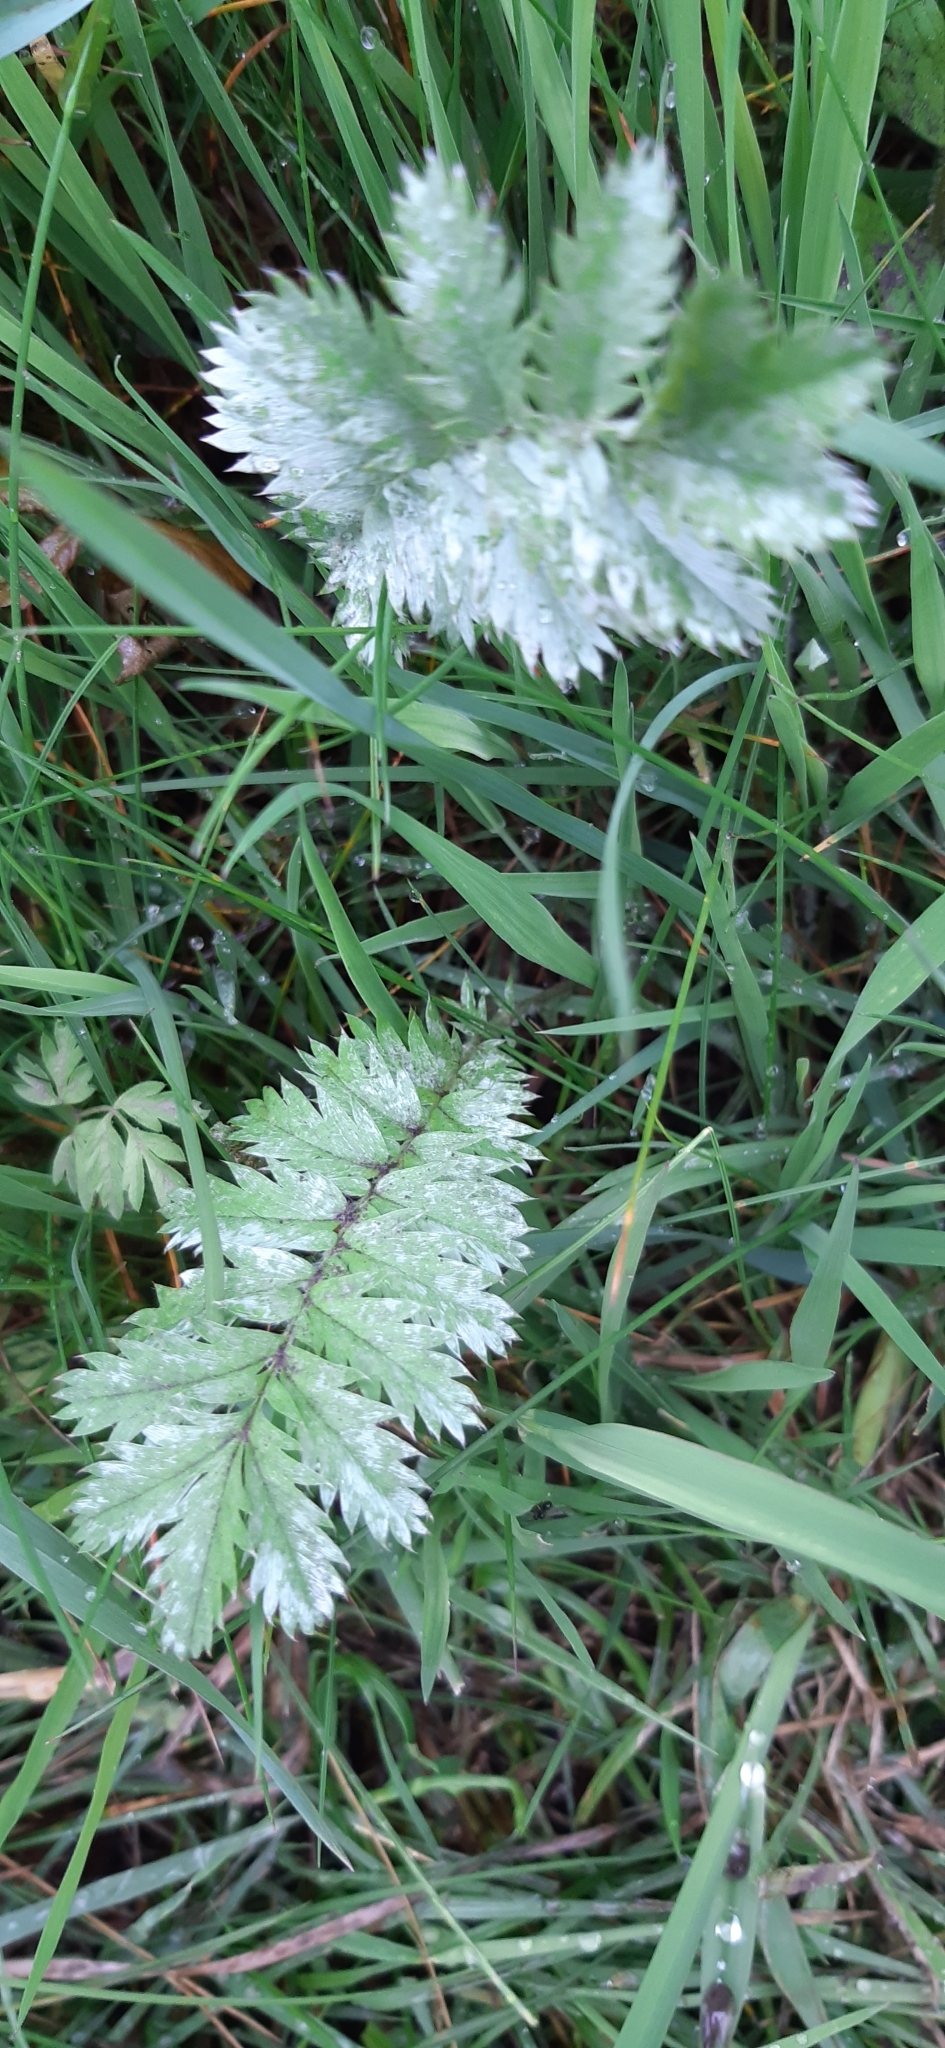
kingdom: Plantae
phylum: Tracheophyta
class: Magnoliopsida
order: Rosales
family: Rosaceae
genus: Argentina
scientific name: Argentina anserina
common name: Common silverweed
